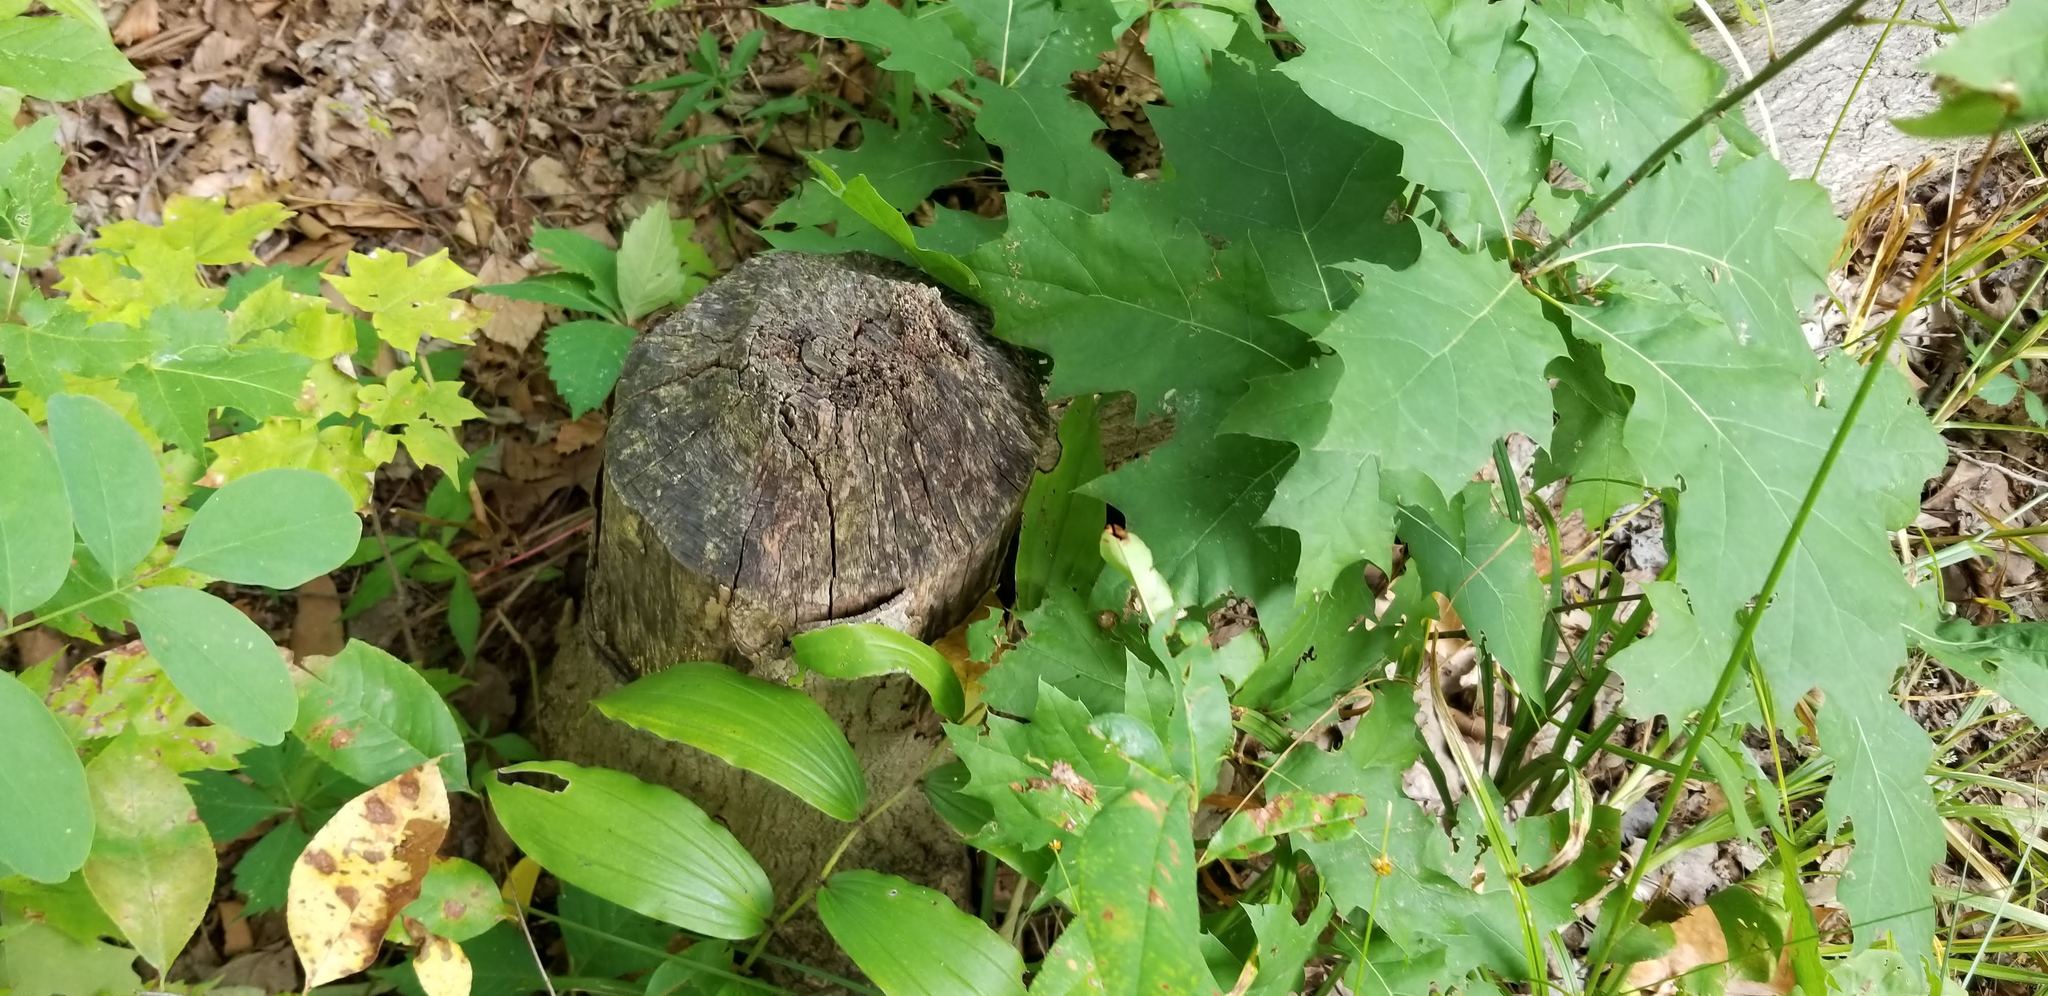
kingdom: Animalia
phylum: Chordata
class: Mammalia
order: Rodentia
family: Castoridae
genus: Castor
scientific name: Castor canadensis
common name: American beaver
